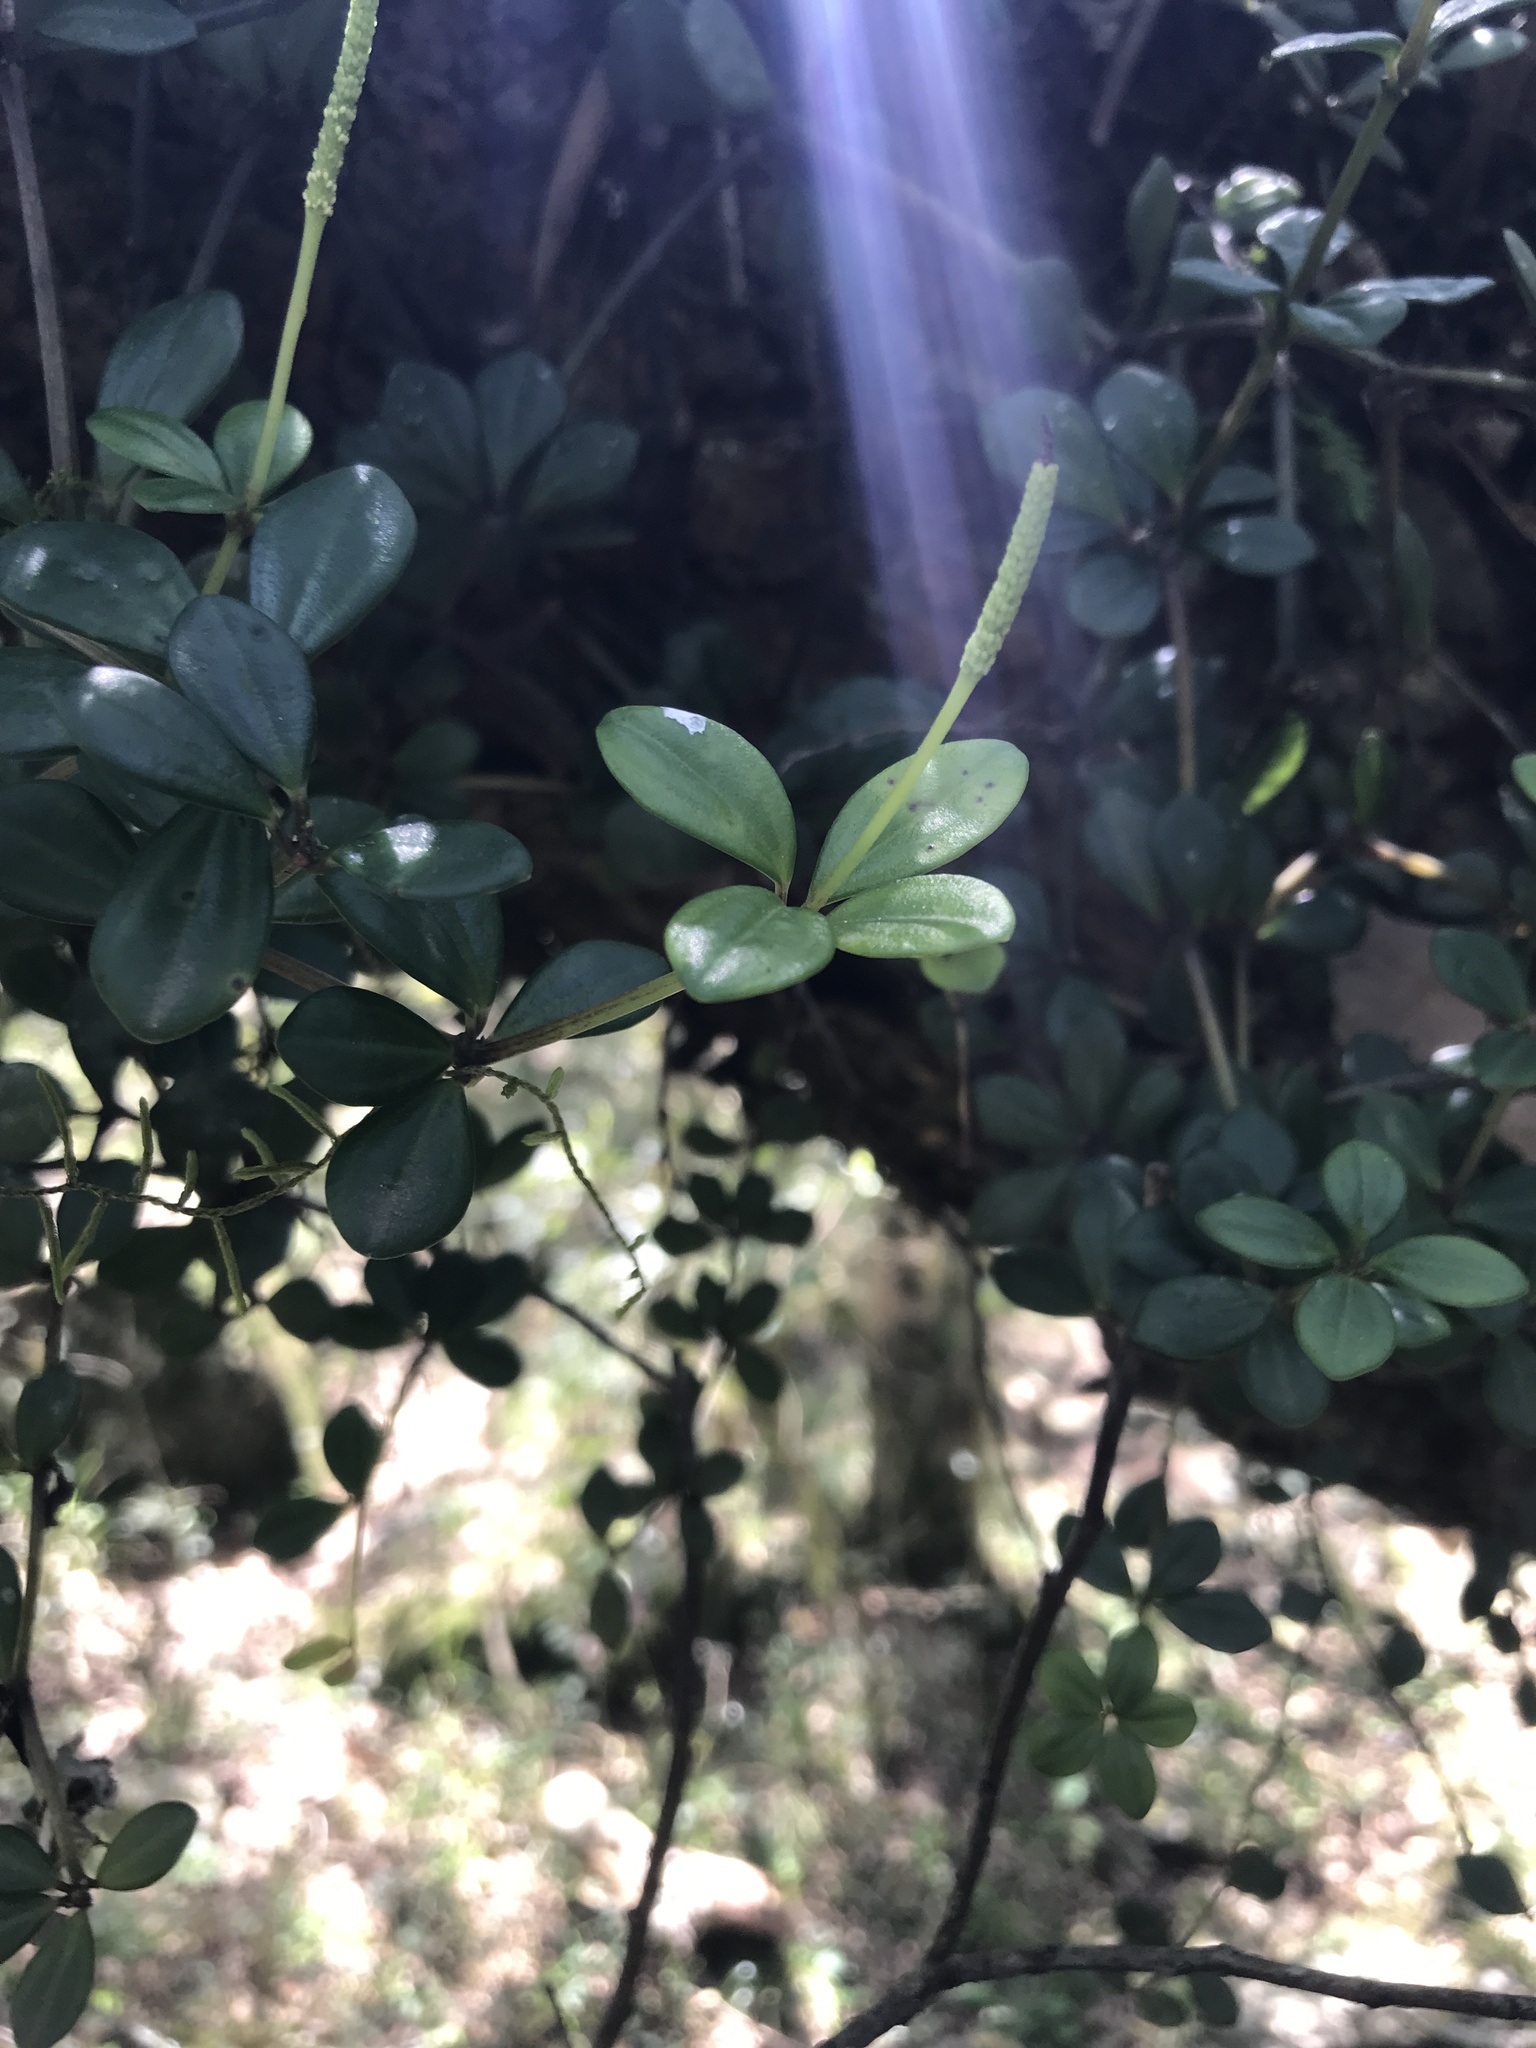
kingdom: Plantae
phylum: Tracheophyta
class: Magnoliopsida
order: Piperales
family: Piperaceae
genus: Peperomia
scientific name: Peperomia tetraphylla
